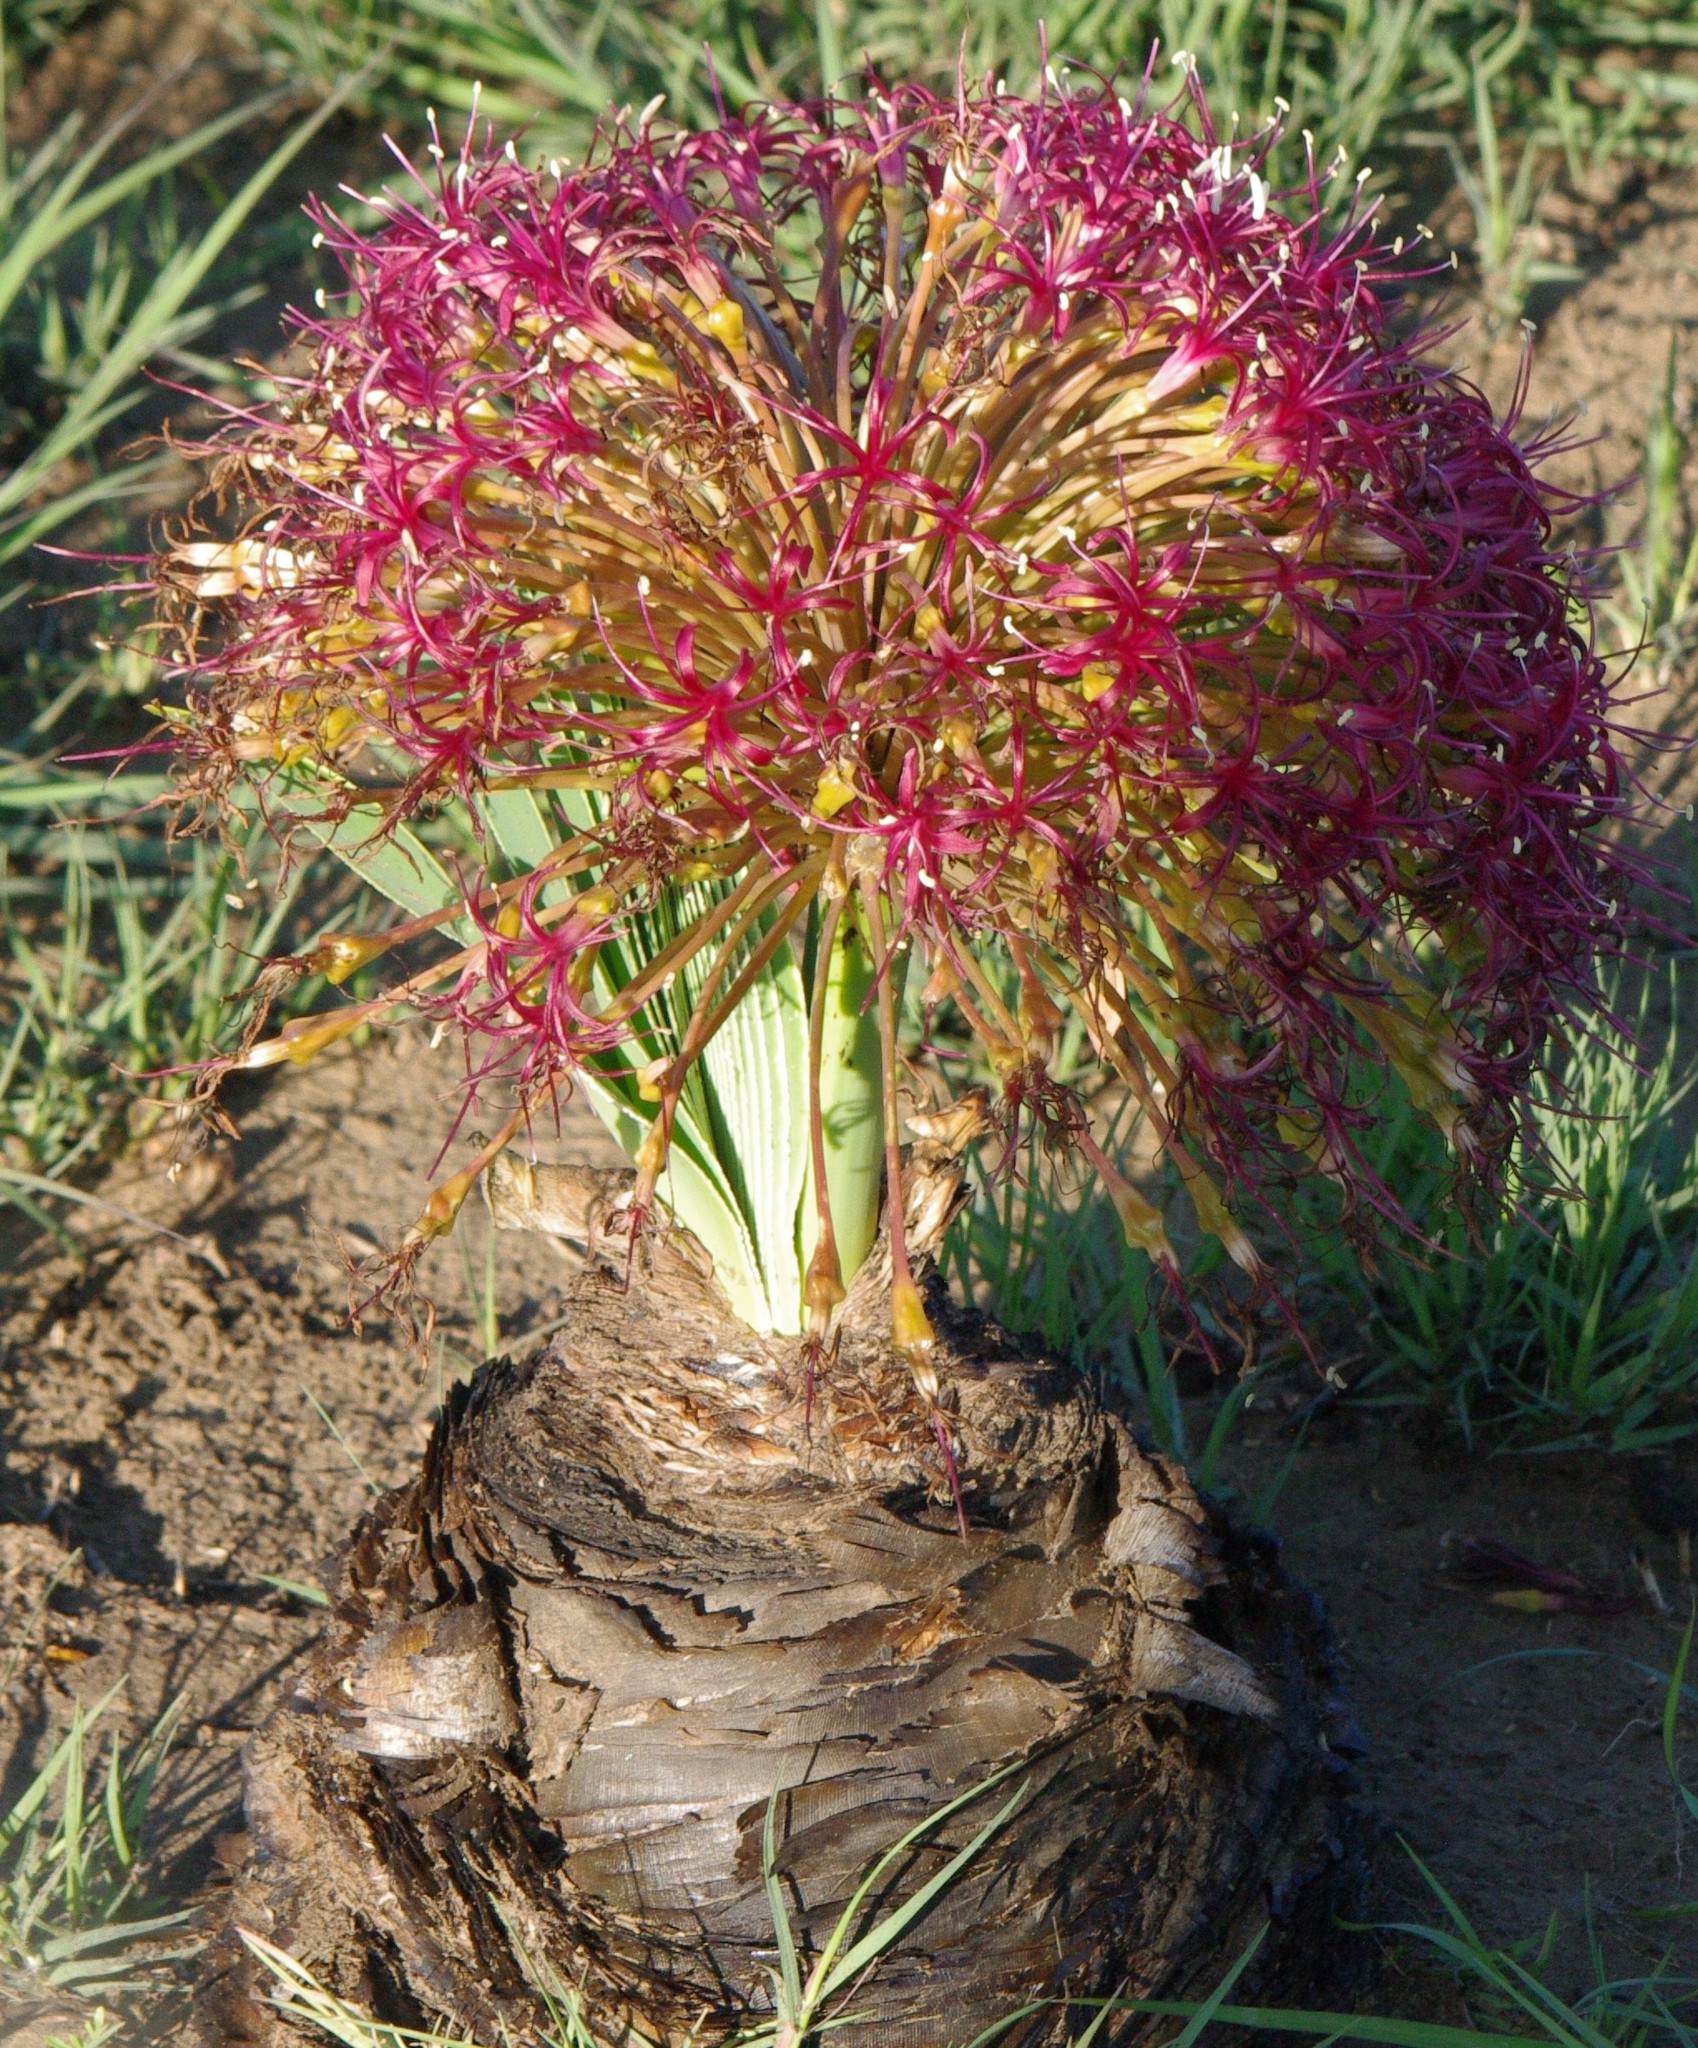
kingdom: Plantae
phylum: Tracheophyta
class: Liliopsida
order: Asparagales
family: Amaryllidaceae
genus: Boophone
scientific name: Boophone disticha
